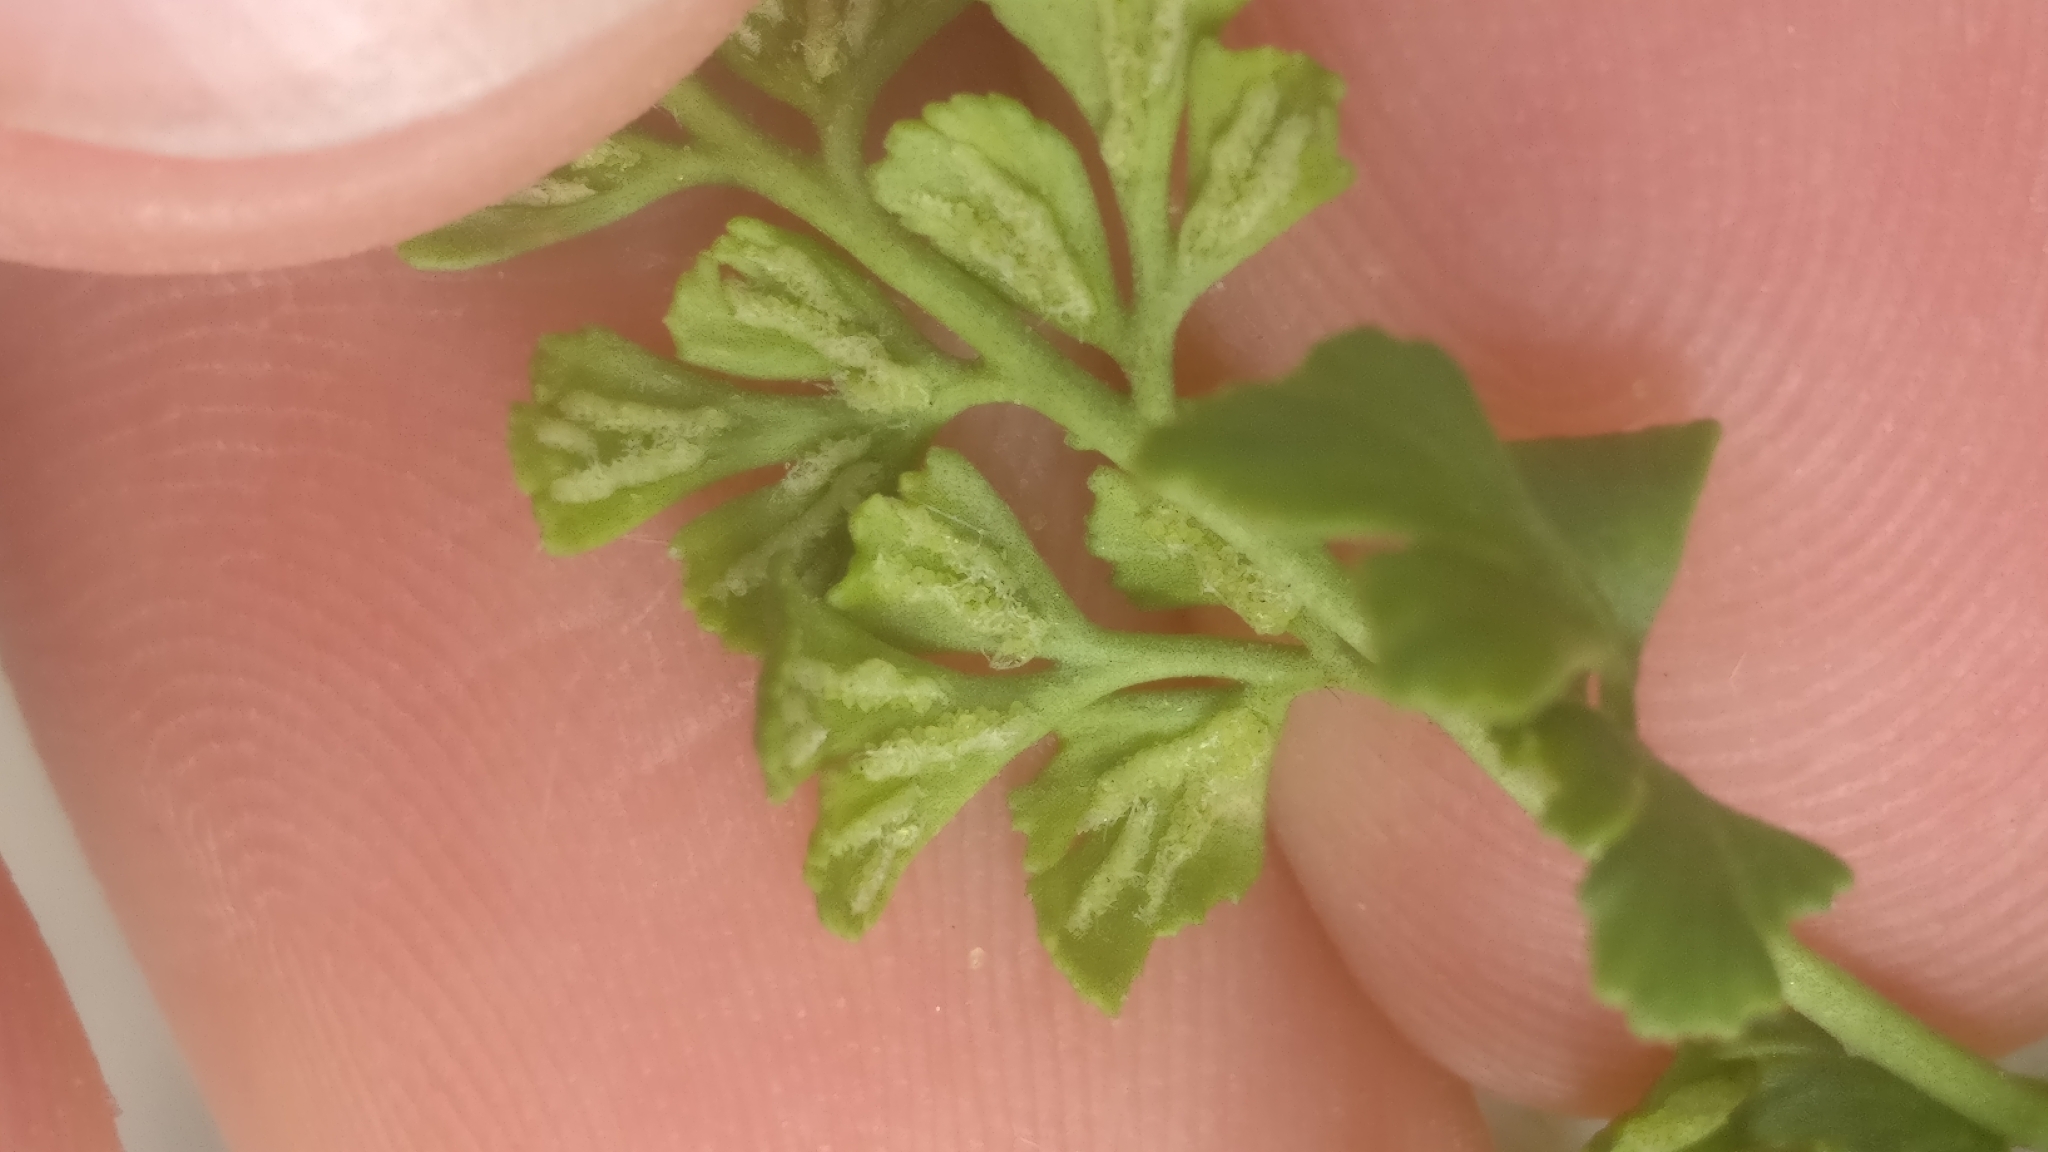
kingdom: Plantae
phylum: Tracheophyta
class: Polypodiopsida
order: Polypodiales
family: Aspleniaceae
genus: Asplenium
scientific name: Asplenium ruta-muraria
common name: Wall-rue
